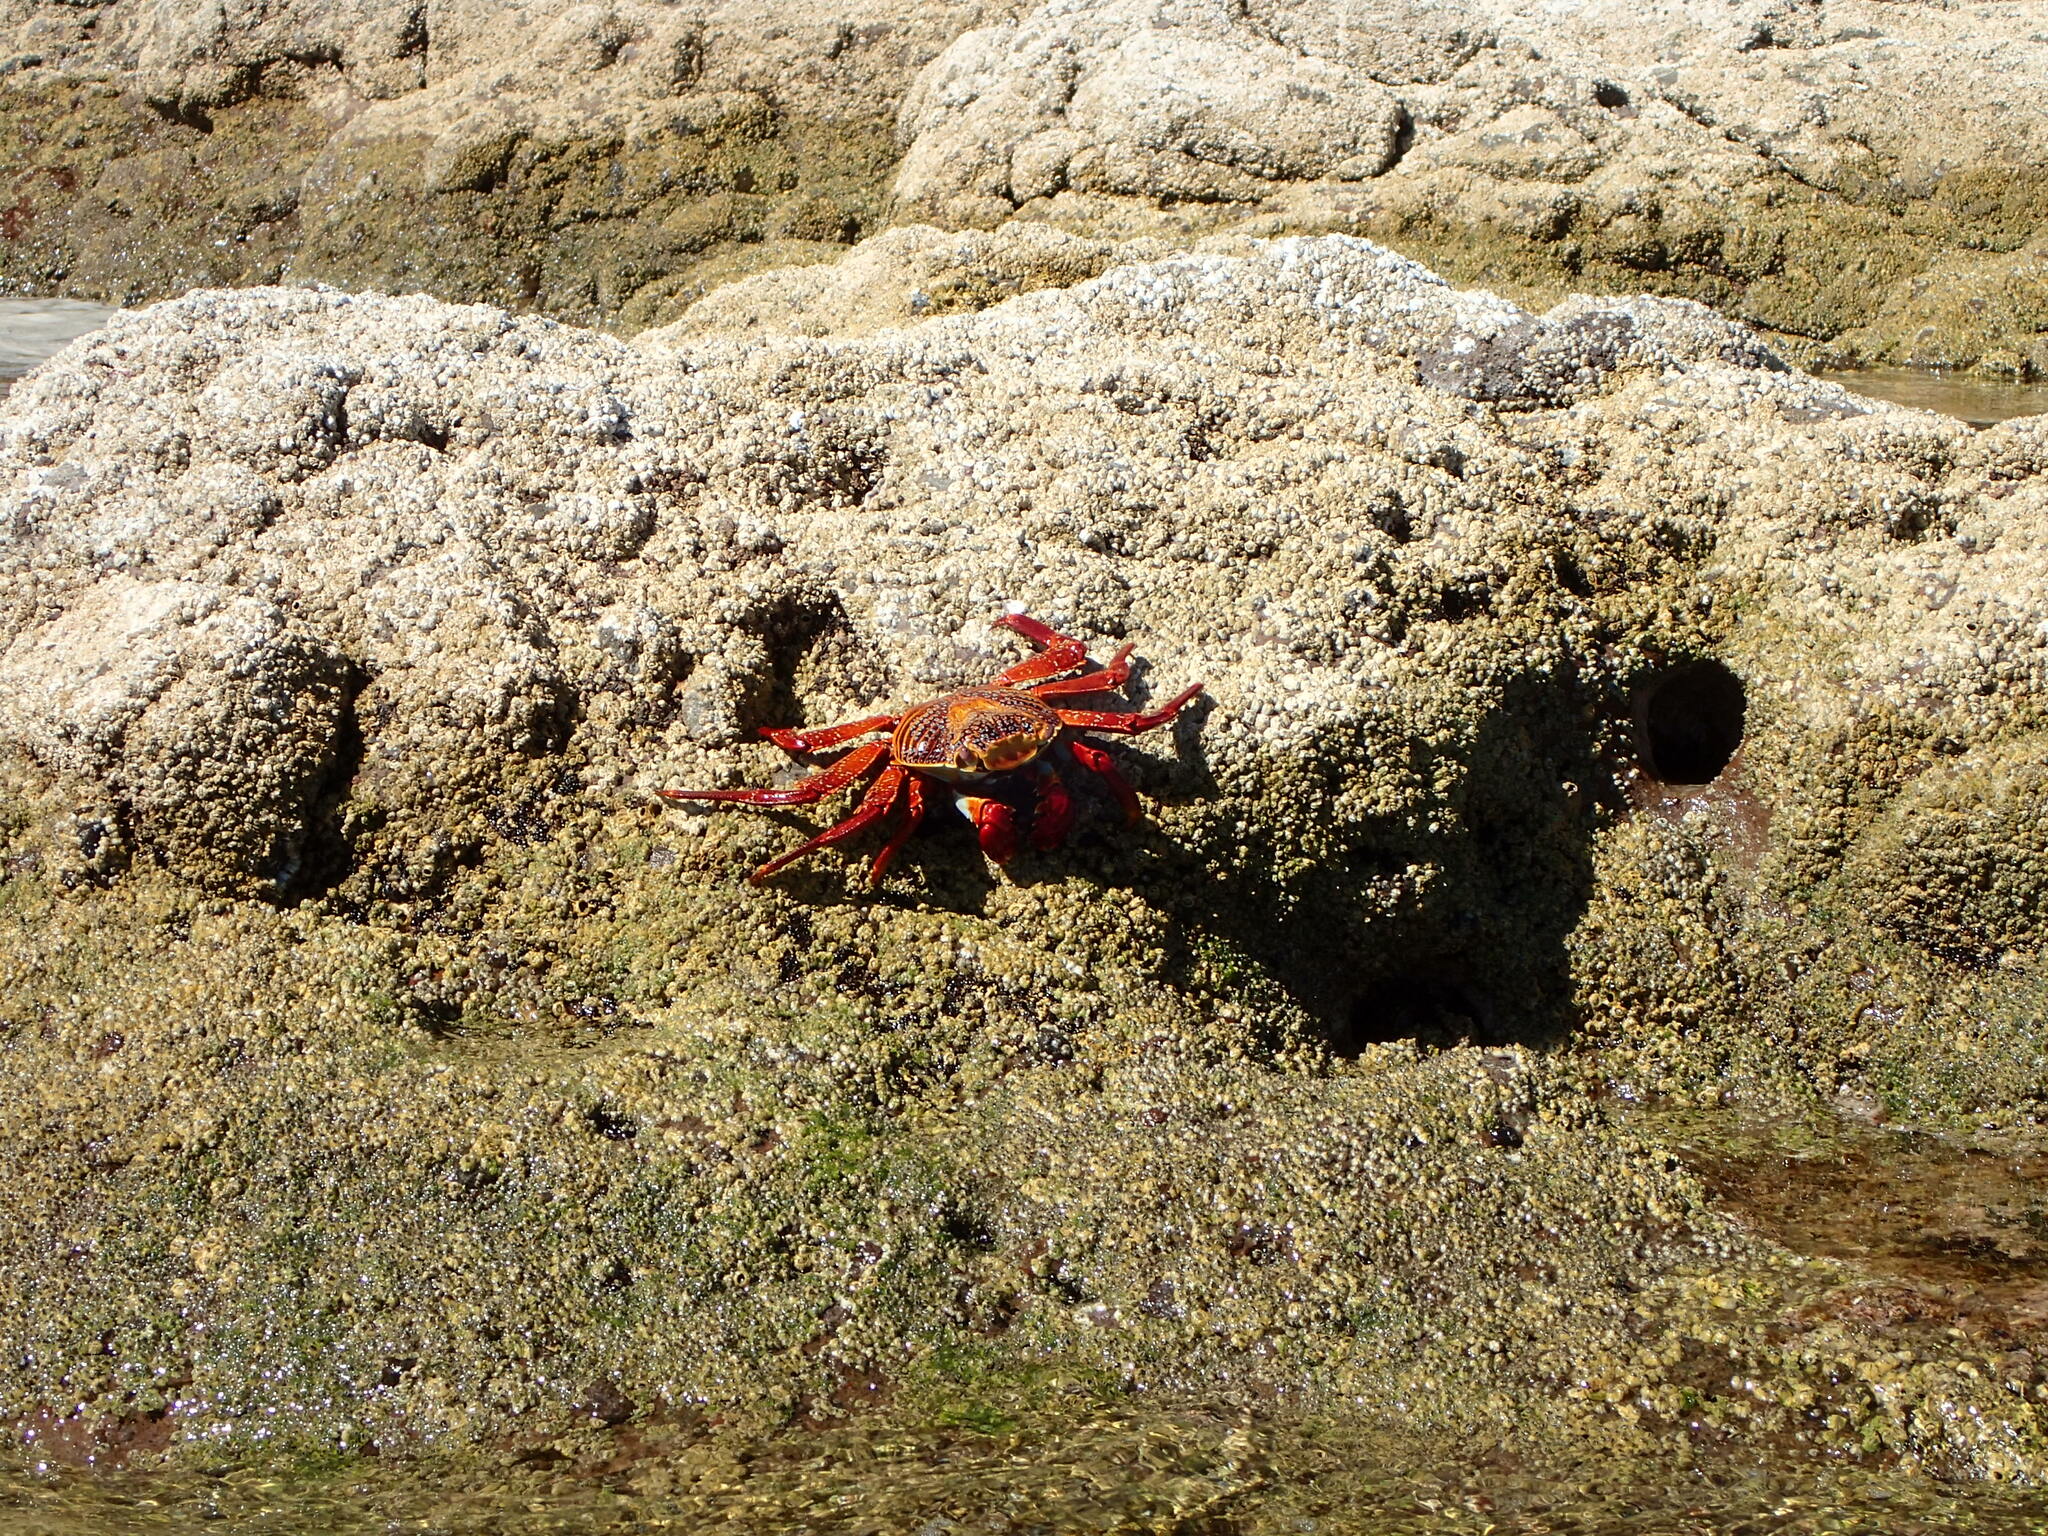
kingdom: Animalia
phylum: Arthropoda
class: Malacostraca
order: Decapoda
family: Grapsidae
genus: Grapsus
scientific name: Grapsus grapsus
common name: Sally lightfoot
